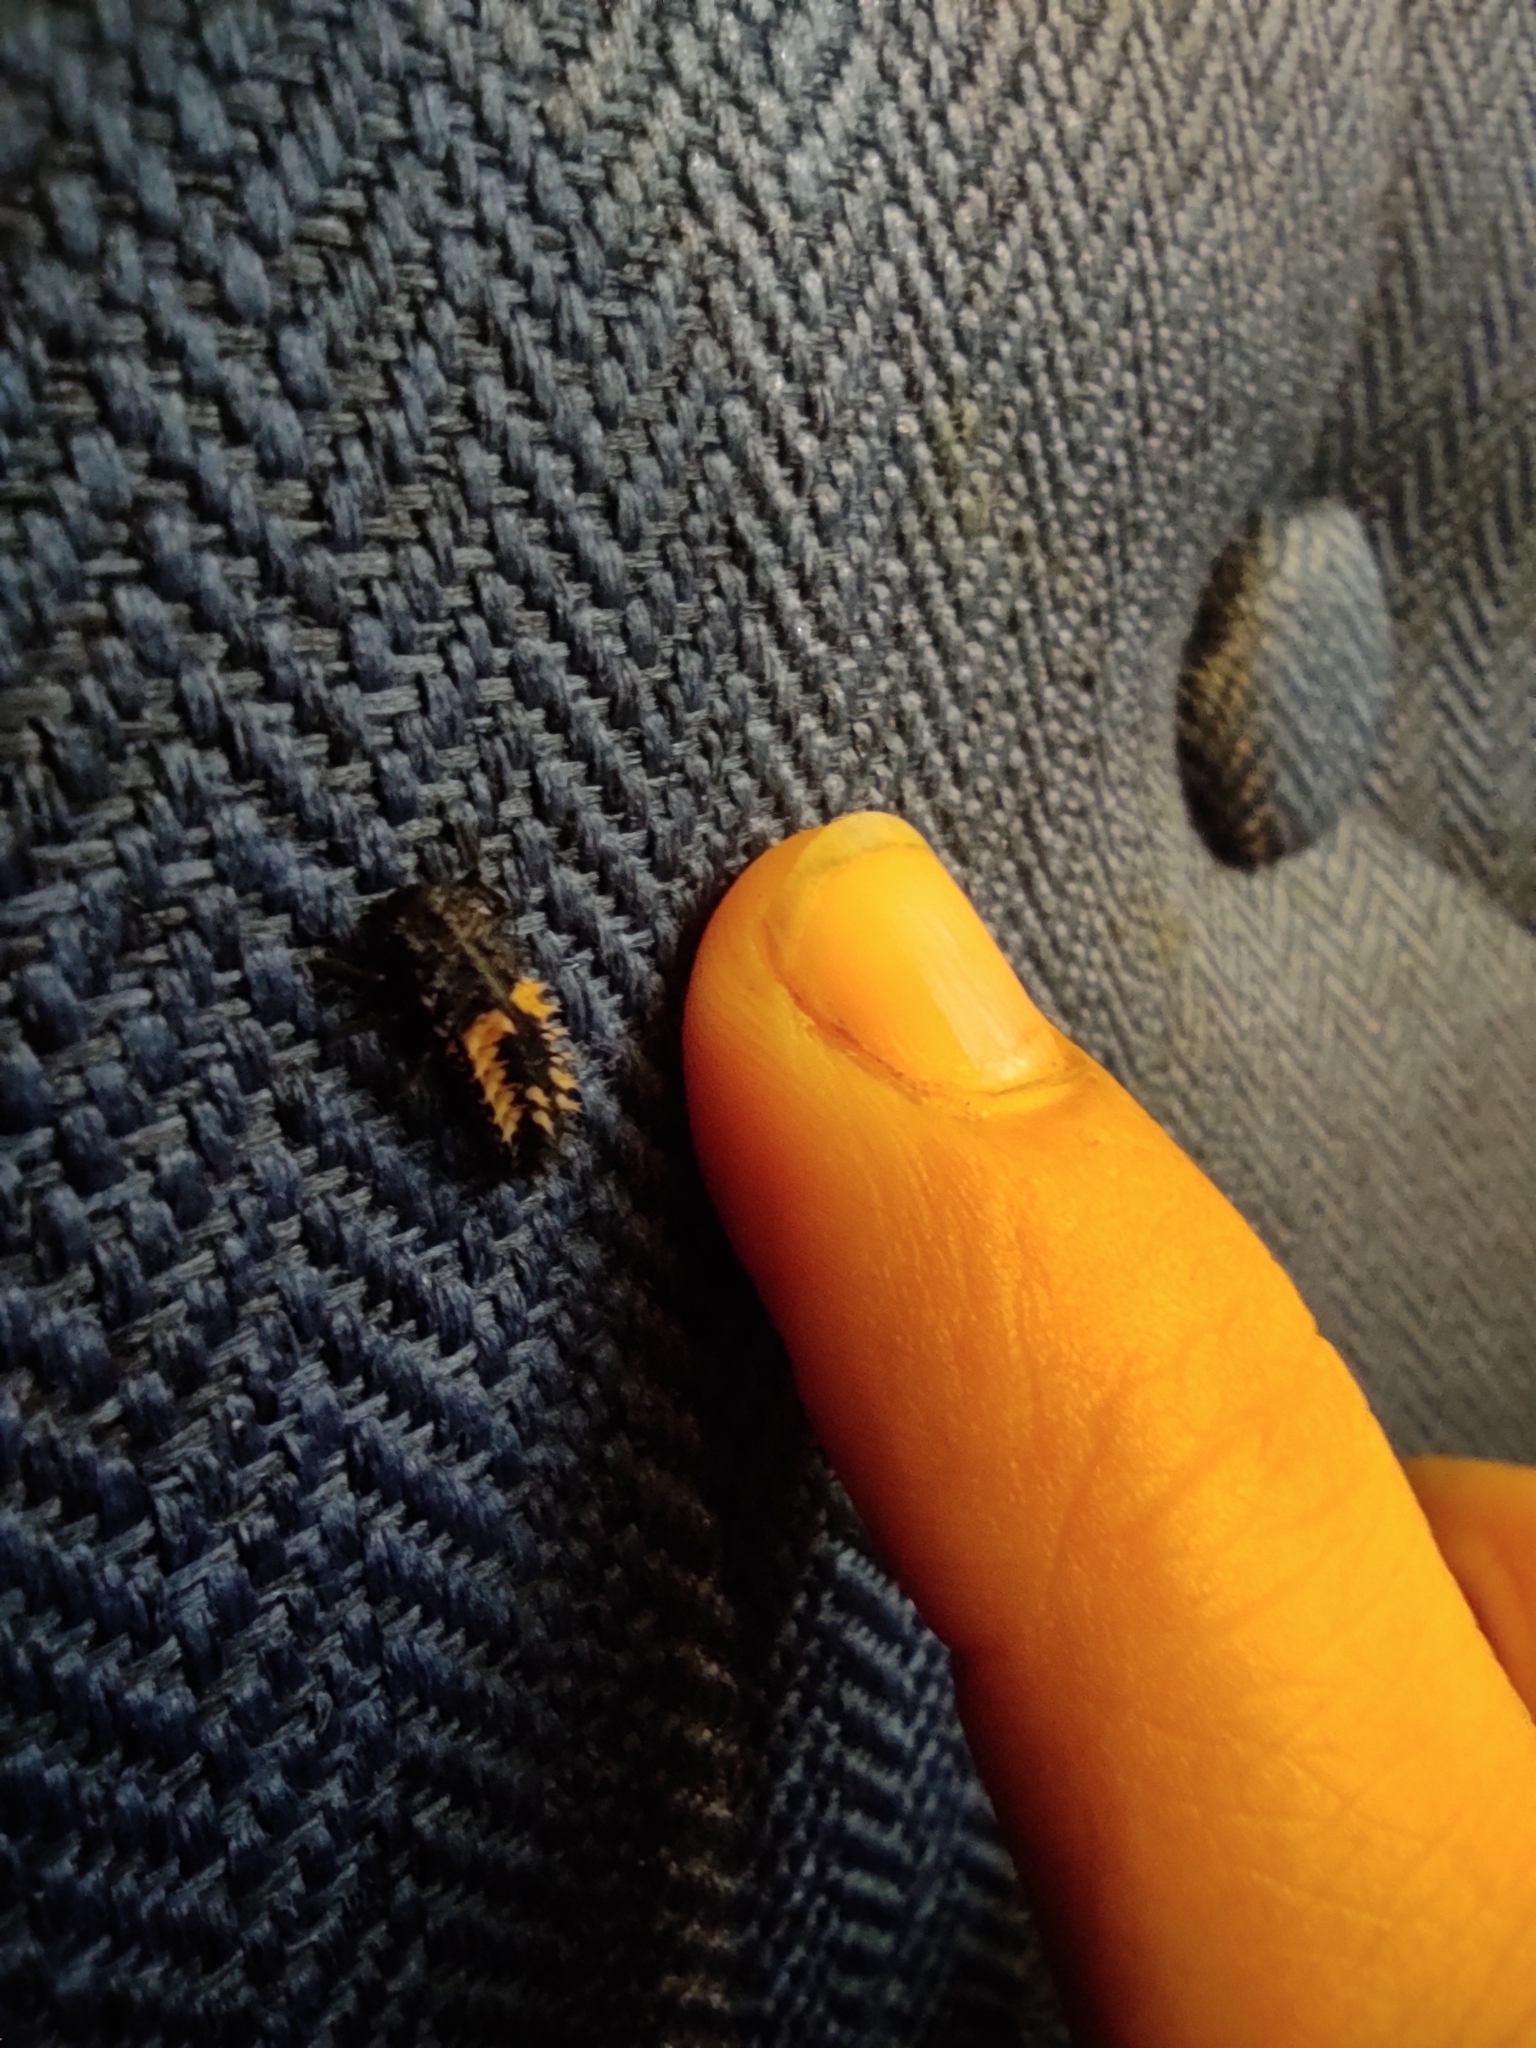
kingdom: Animalia
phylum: Arthropoda
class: Insecta
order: Coleoptera
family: Coccinellidae
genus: Harmonia
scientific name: Harmonia axyridis
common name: Harlequin ladybird
